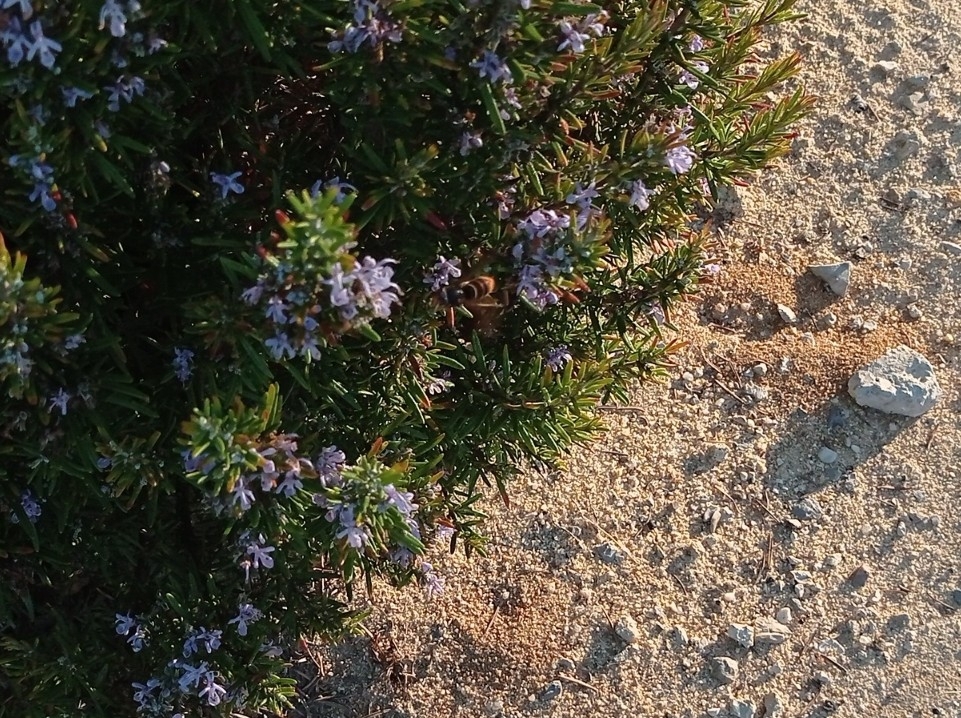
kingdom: Animalia
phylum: Arthropoda
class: Insecta
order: Hymenoptera
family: Vespidae
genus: Vespa
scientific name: Vespa velutina
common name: Asian hornet
